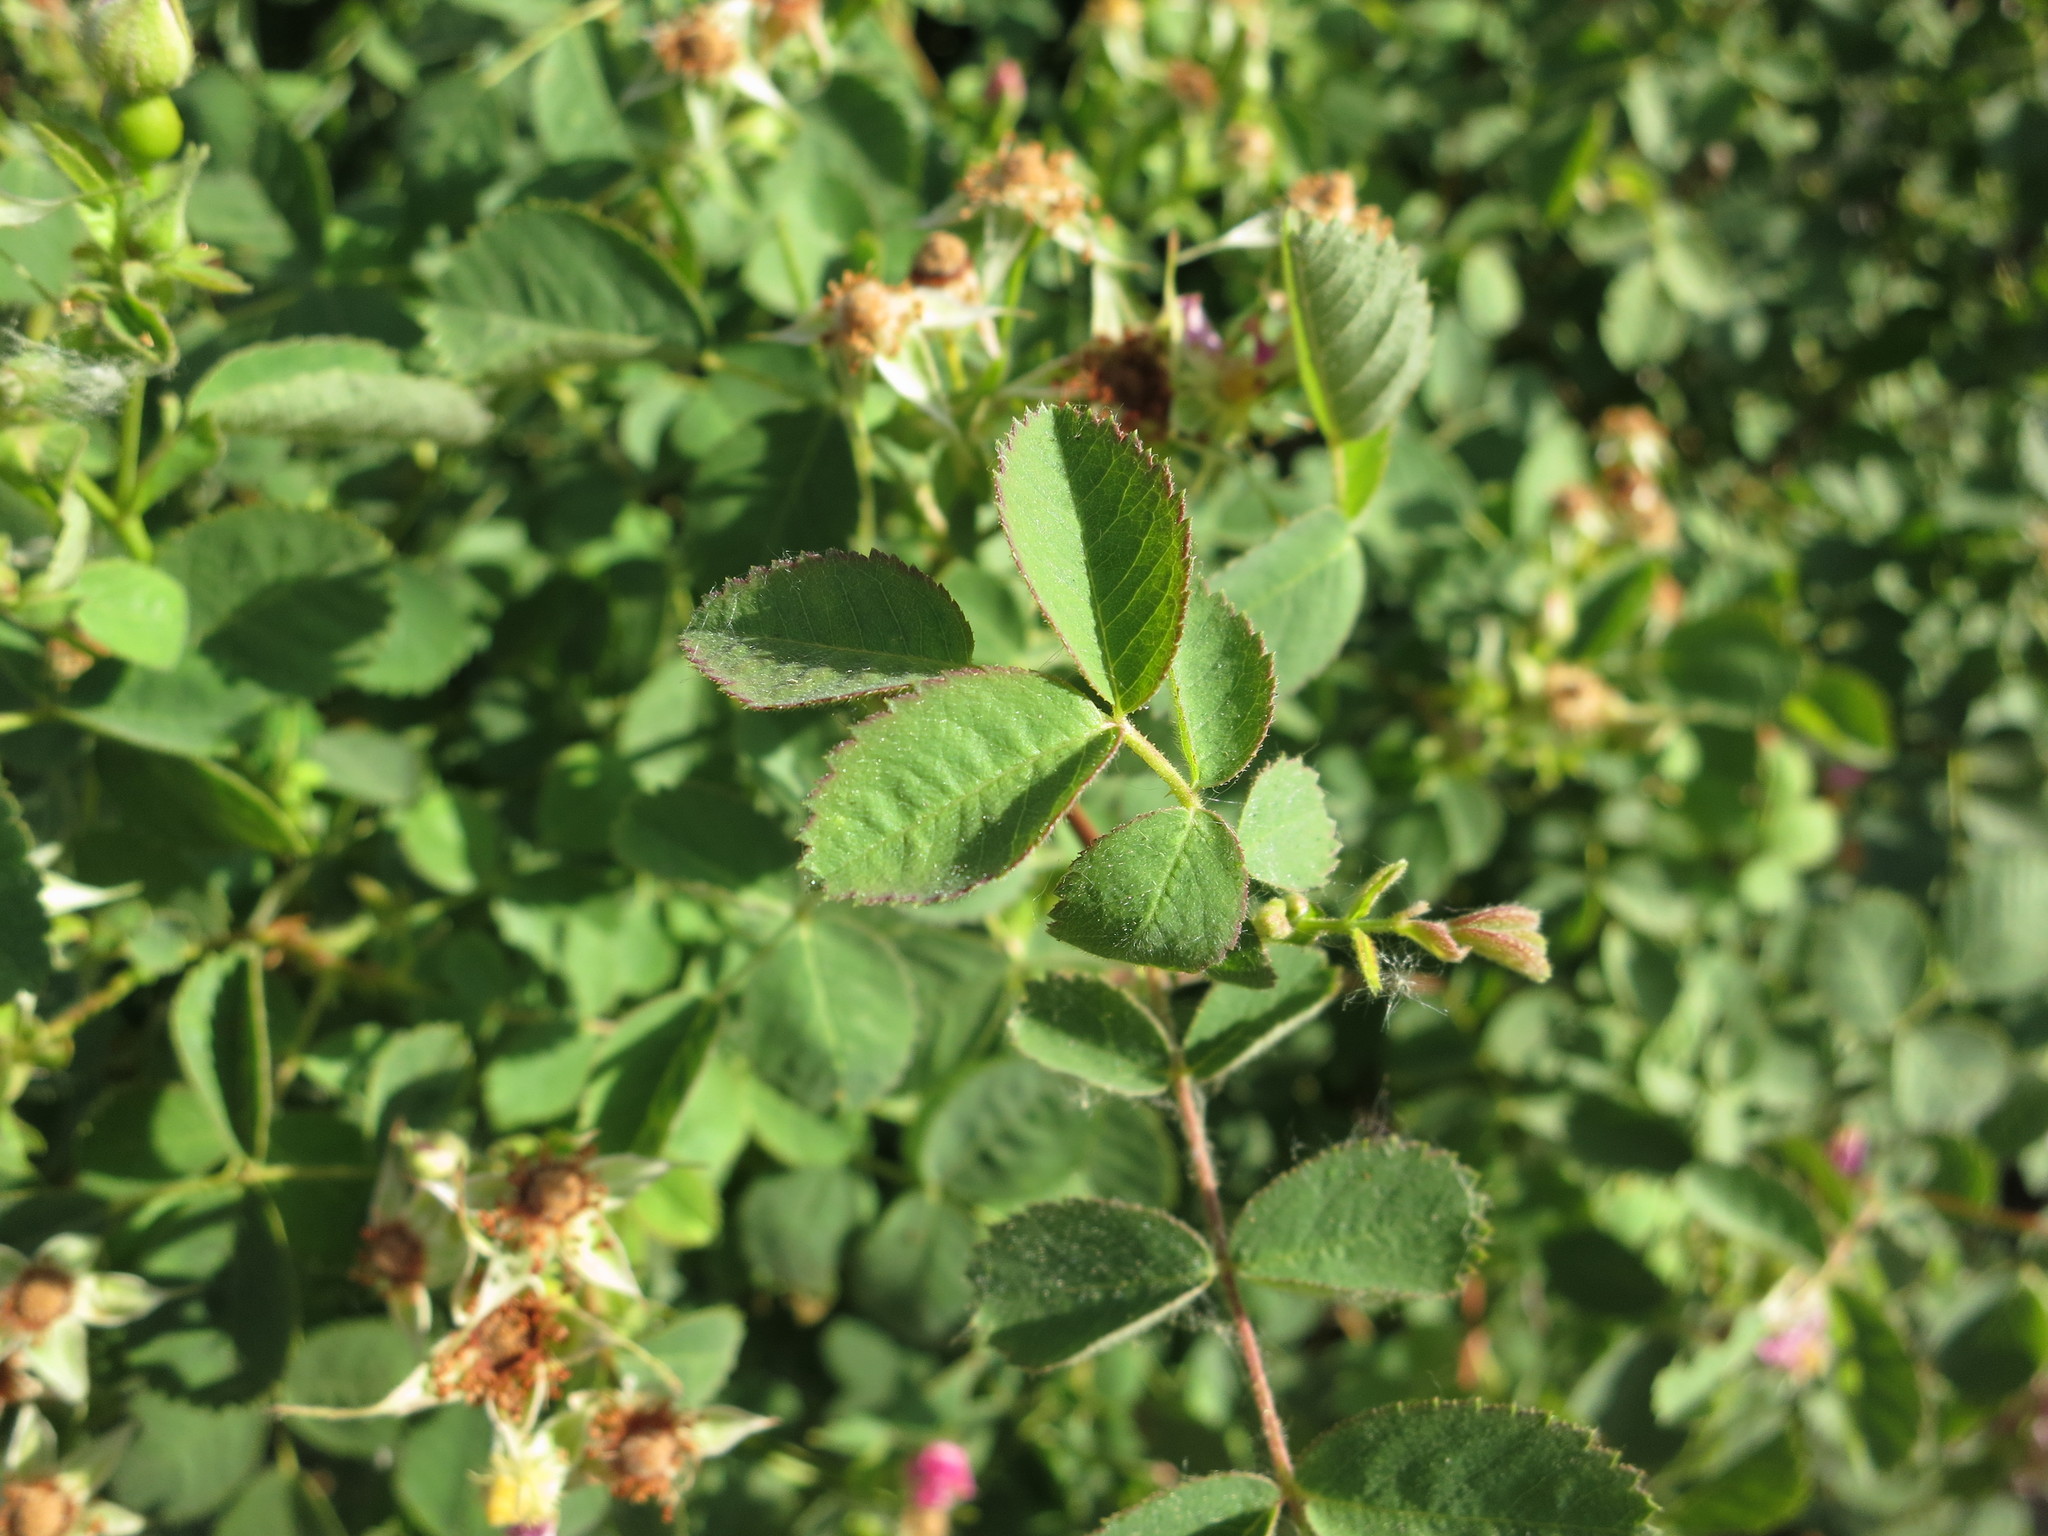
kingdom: Plantae
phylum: Tracheophyta
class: Magnoliopsida
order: Rosales
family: Rosaceae
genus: Rosa
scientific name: Rosa californica
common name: California rose
